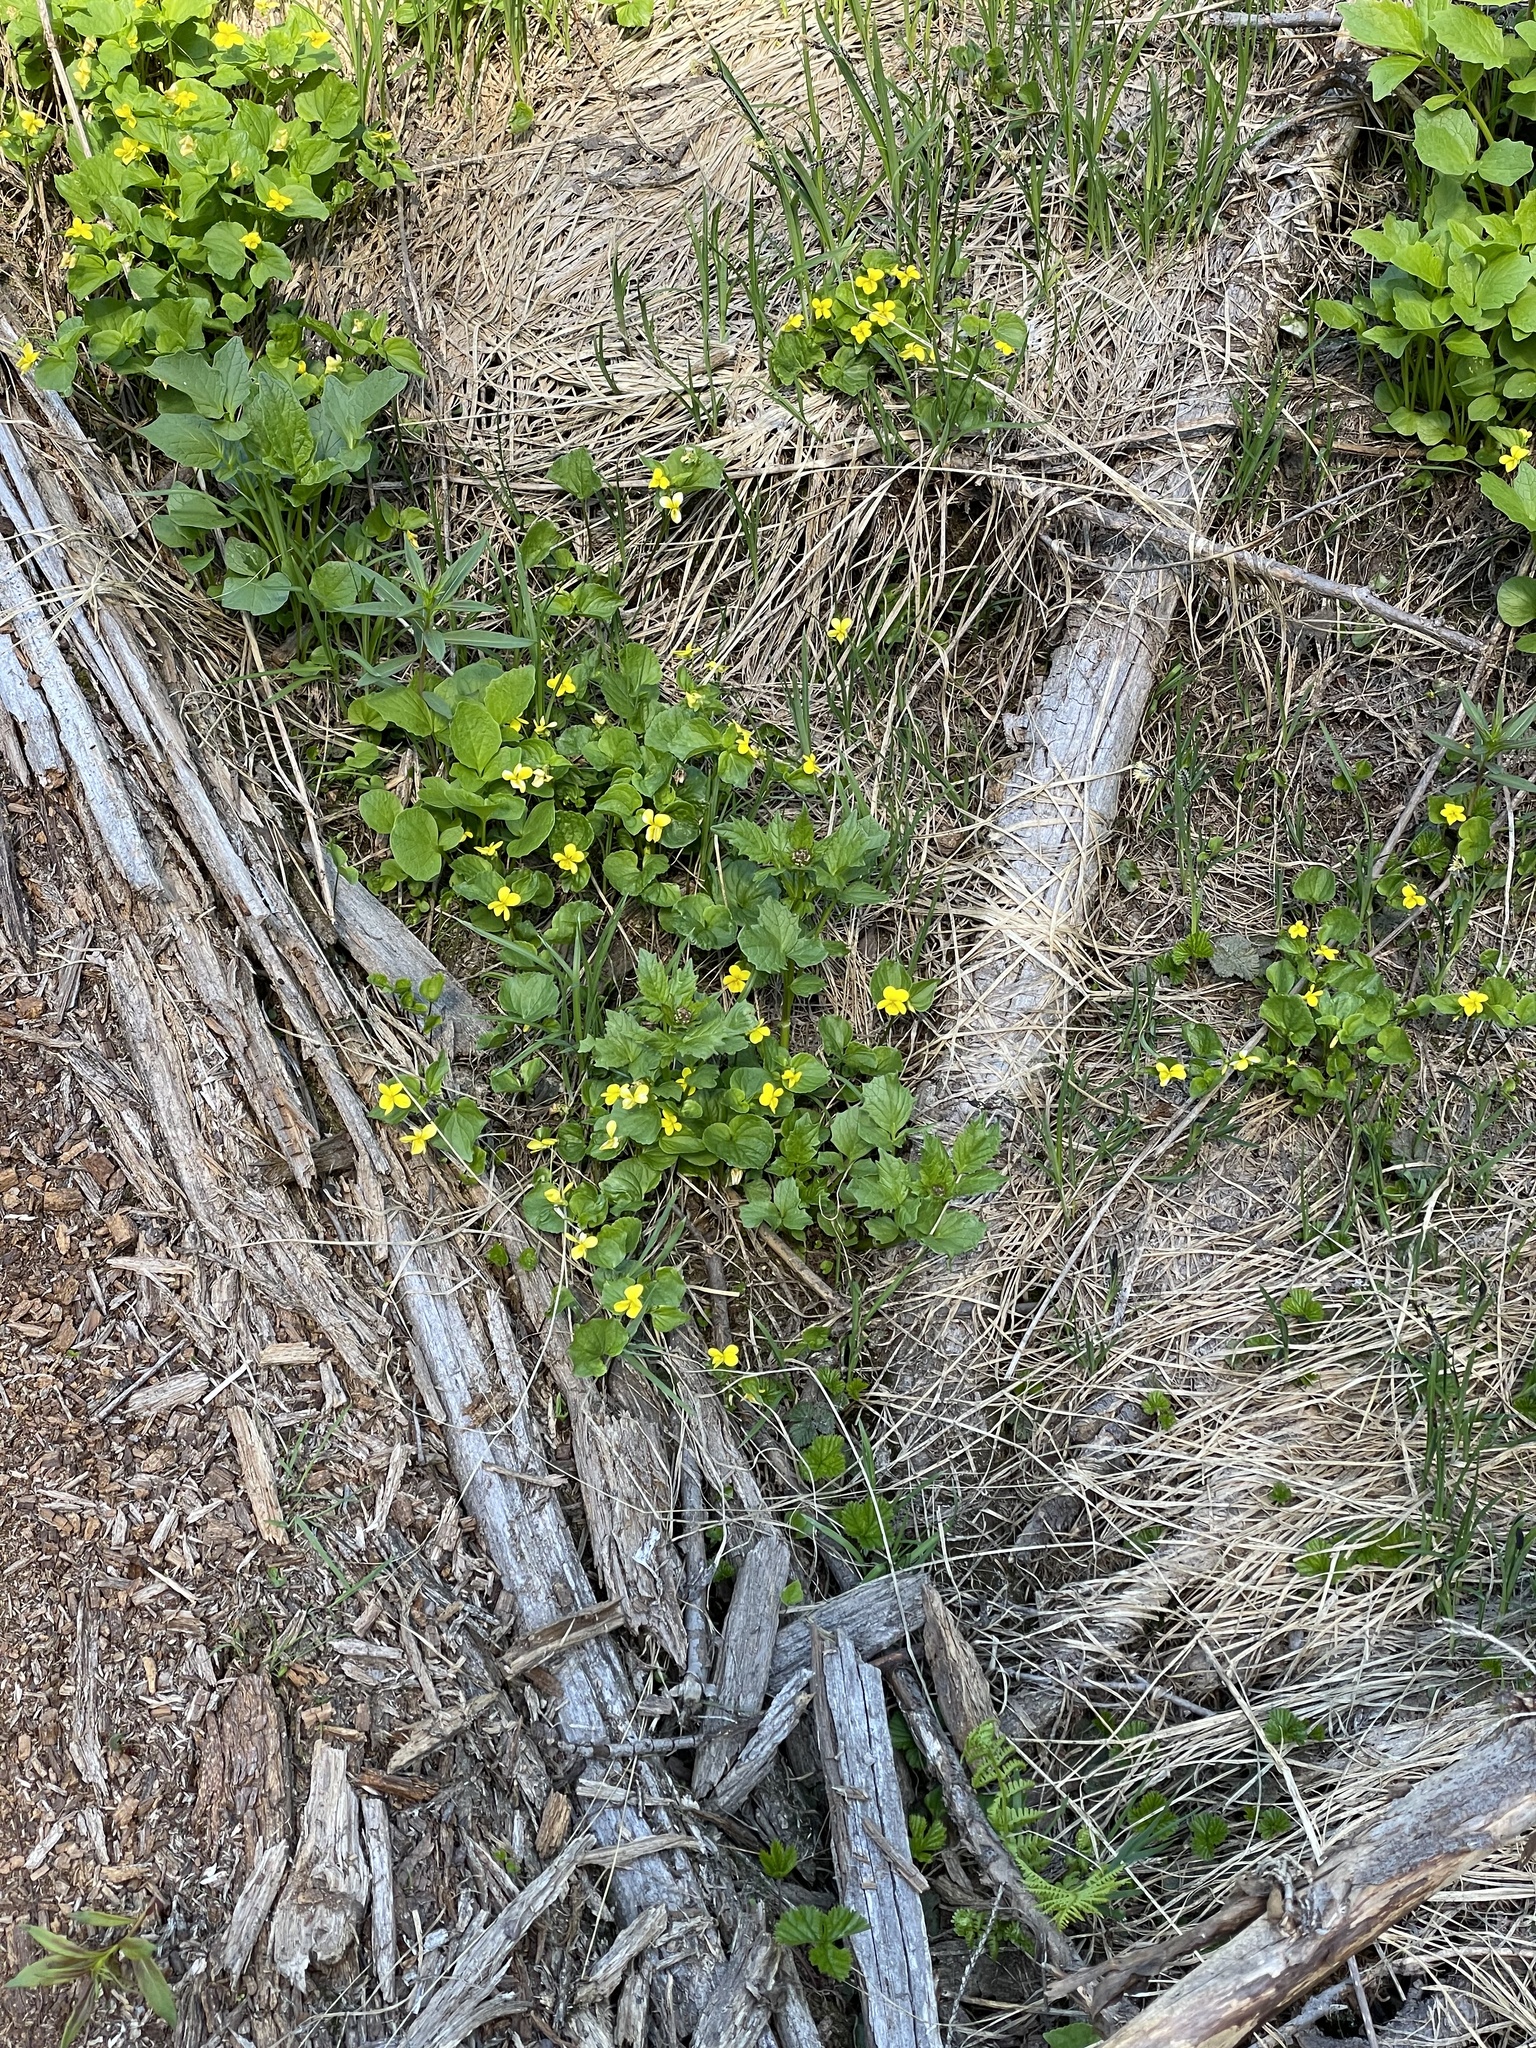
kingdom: Plantae
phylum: Tracheophyta
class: Magnoliopsida
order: Malpighiales
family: Violaceae
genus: Viola
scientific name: Viola orbiculata
